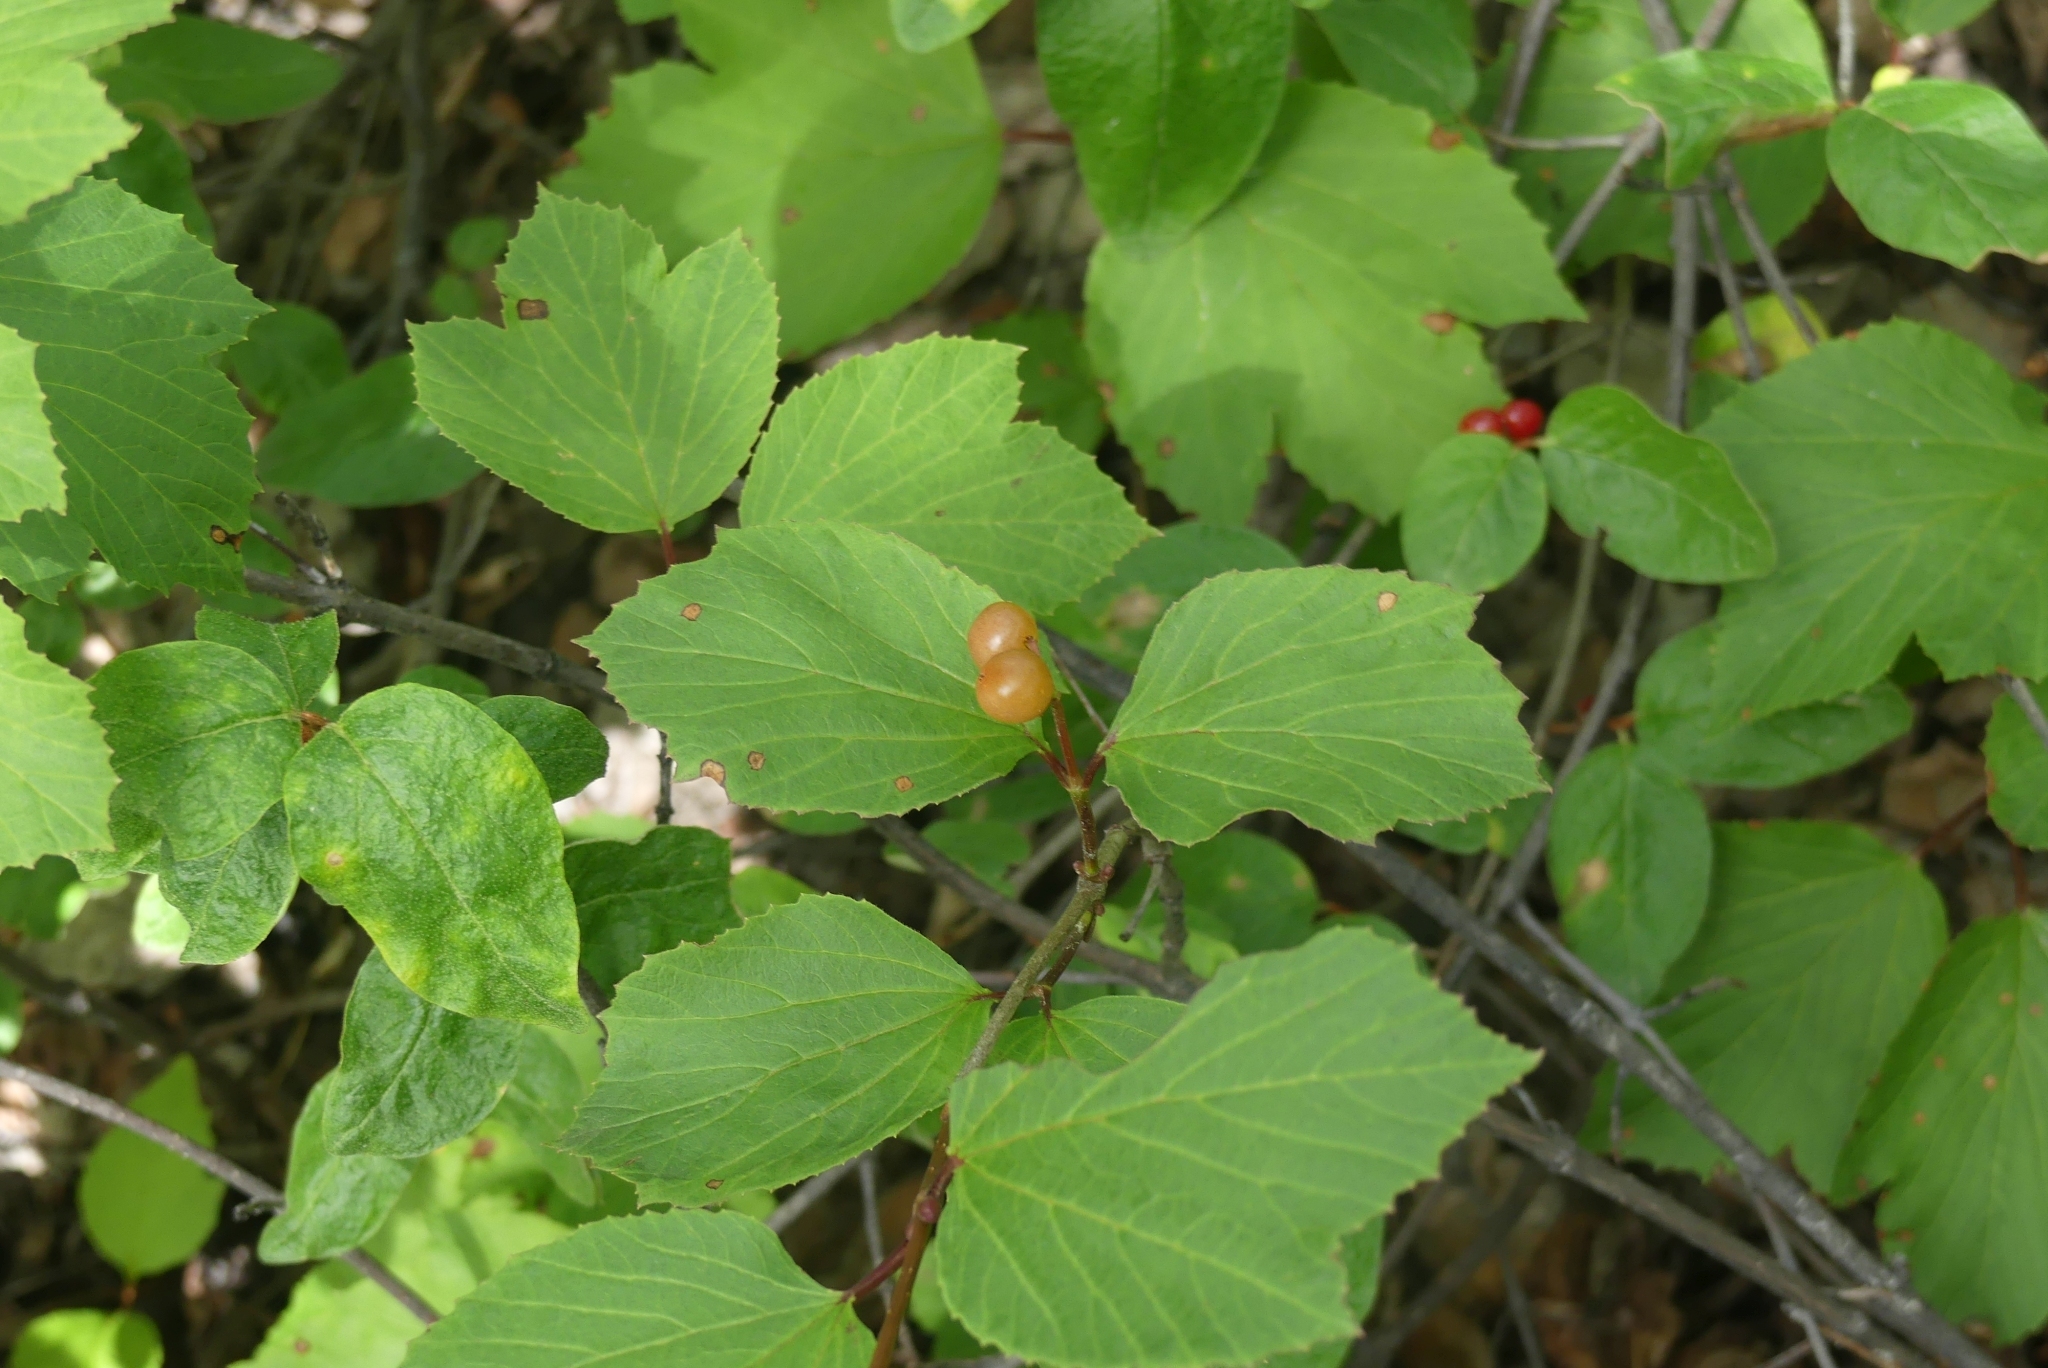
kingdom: Plantae
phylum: Tracheophyta
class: Magnoliopsida
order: Dipsacales
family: Viburnaceae
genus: Viburnum
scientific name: Viburnum edule
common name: Mooseberry
